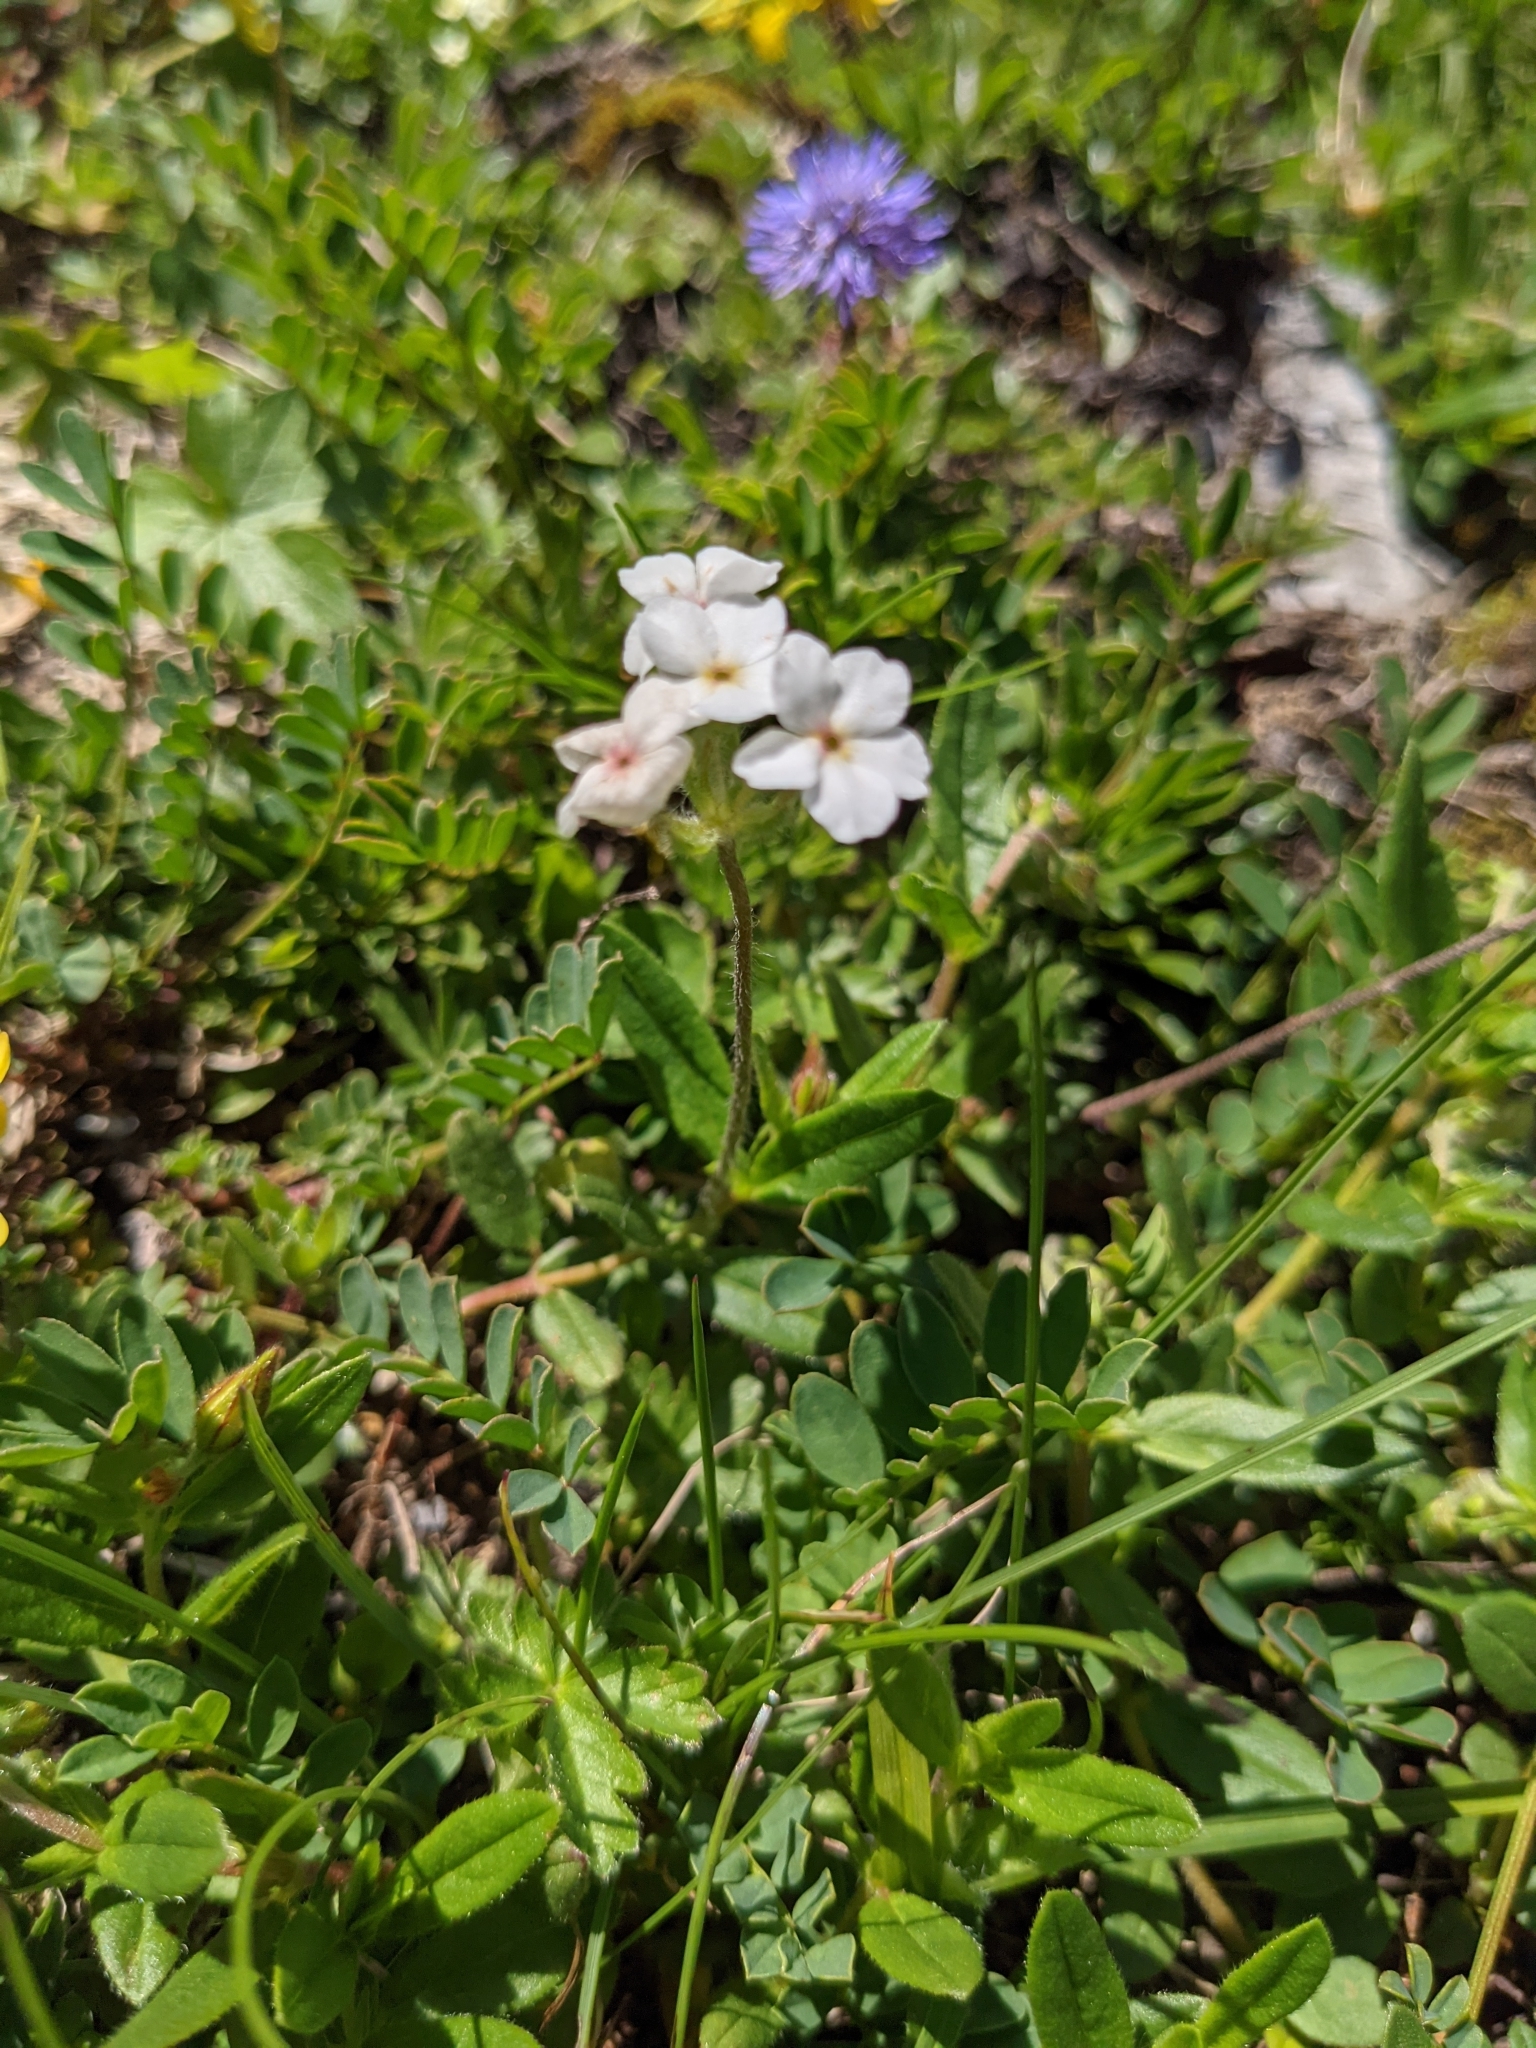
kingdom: Plantae
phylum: Tracheophyta
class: Magnoliopsida
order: Ericales
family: Primulaceae
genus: Androsace
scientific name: Androsace chamaejasme
